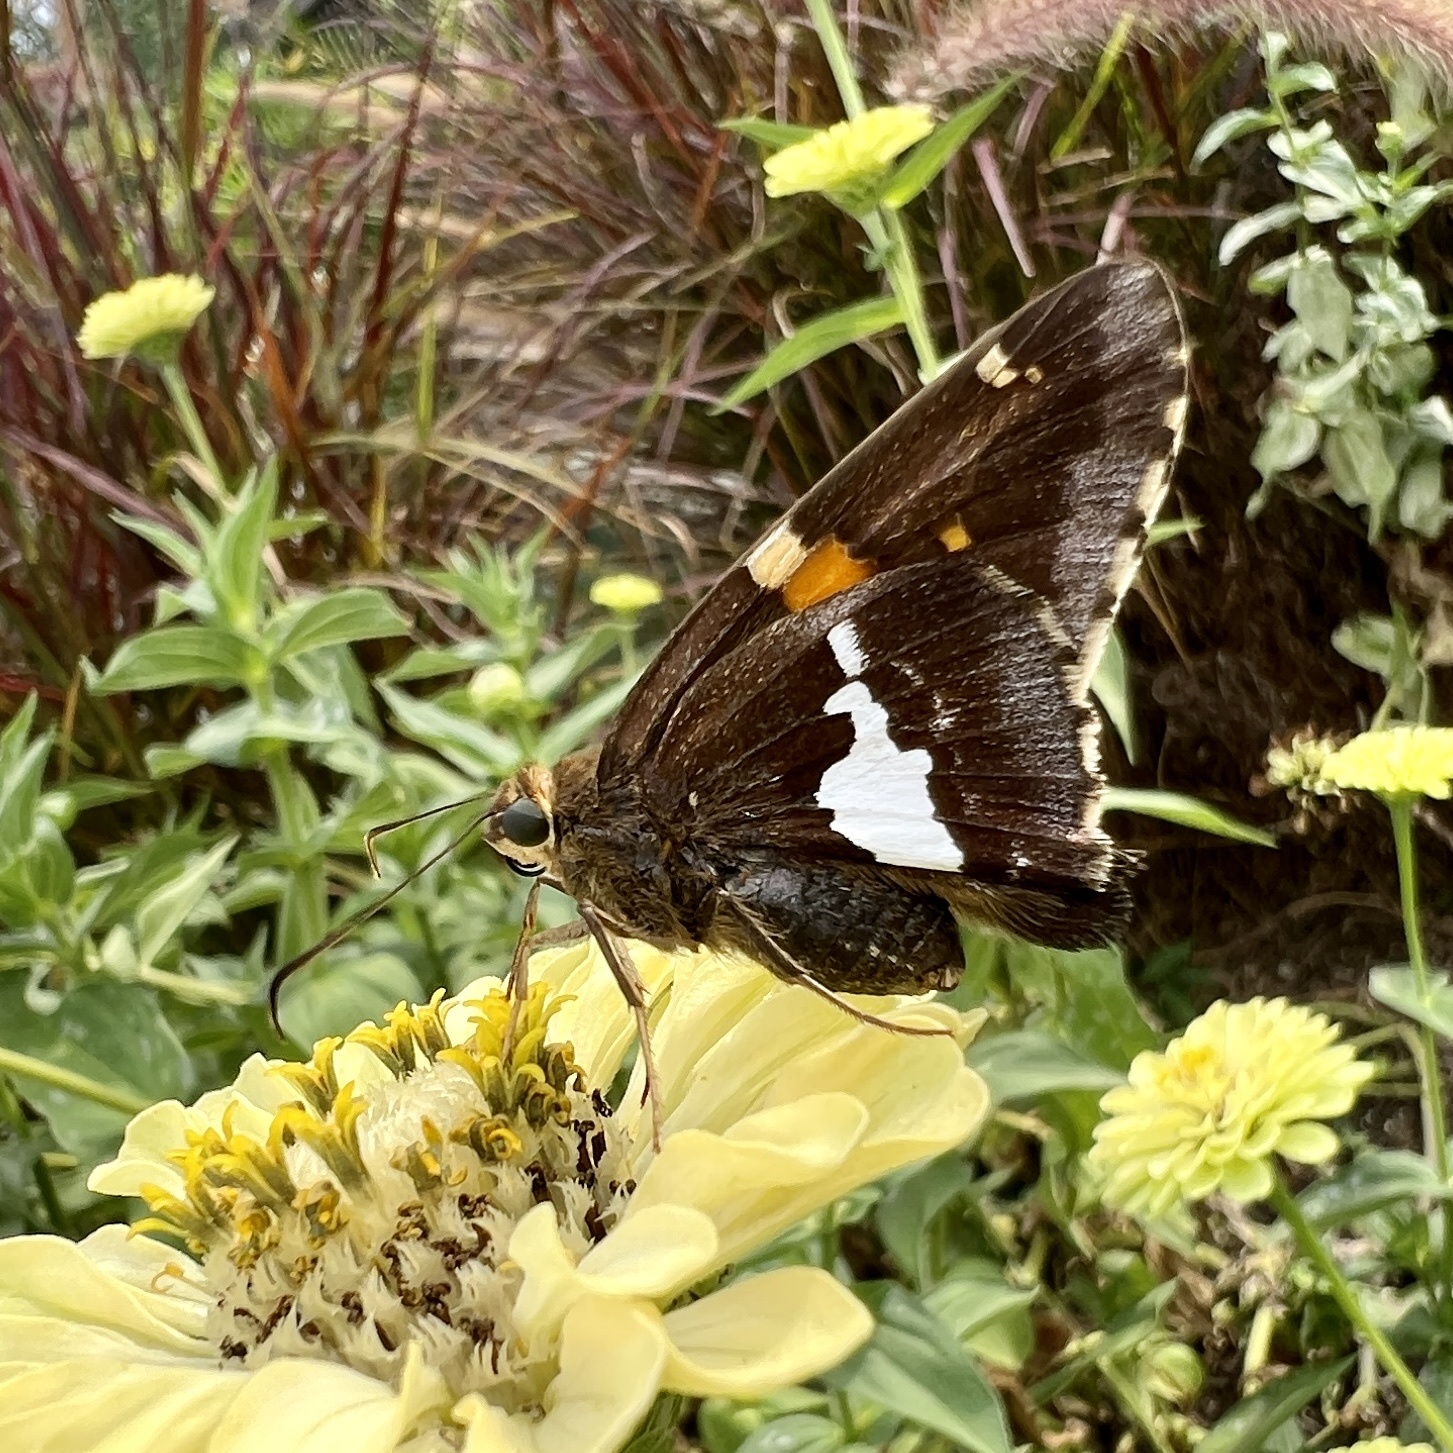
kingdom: Animalia
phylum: Arthropoda
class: Insecta
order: Lepidoptera
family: Hesperiidae
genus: Epargyreus
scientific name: Epargyreus clarus
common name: Silver-spotted skipper
